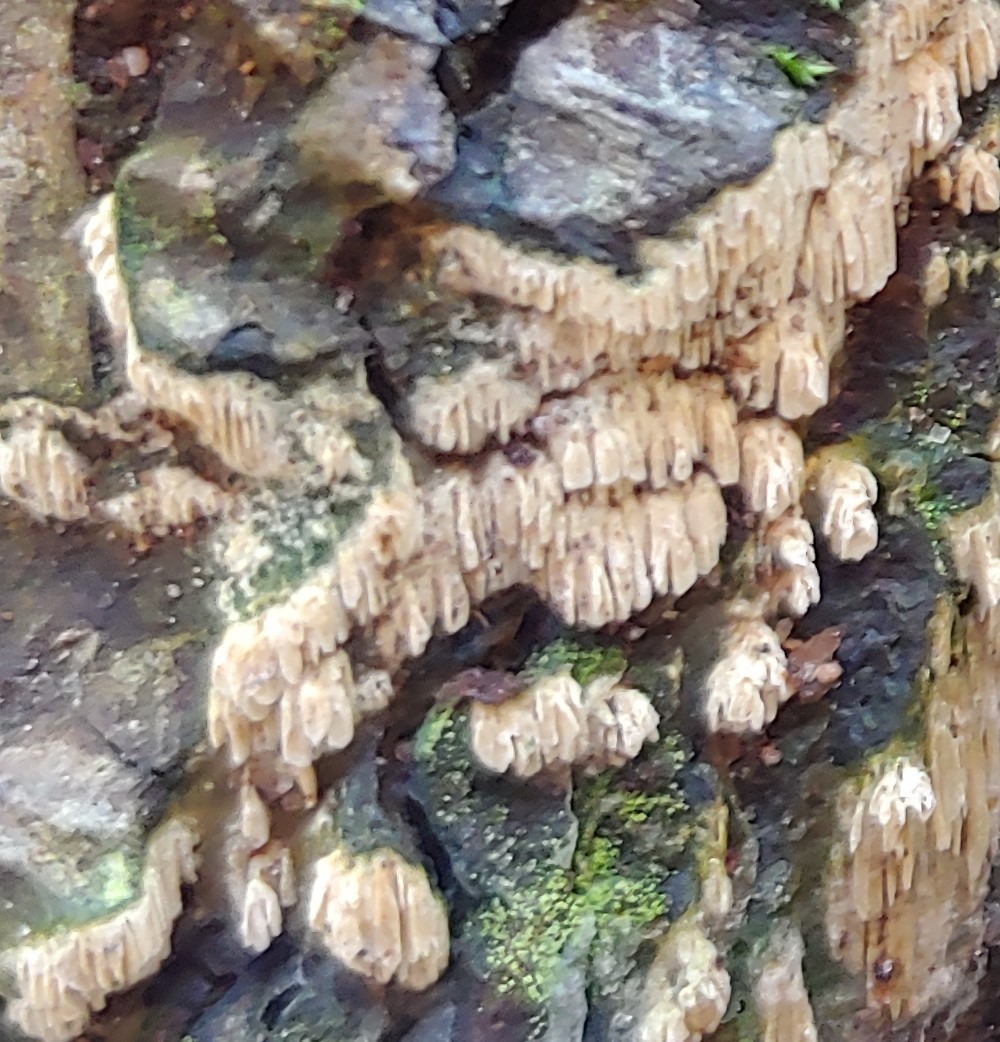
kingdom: Fungi
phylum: Basidiomycota
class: Agaricomycetes
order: Agaricales
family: Radulomycetaceae
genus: Radulomyces
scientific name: Radulomyces copelandii
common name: Asian beauty
